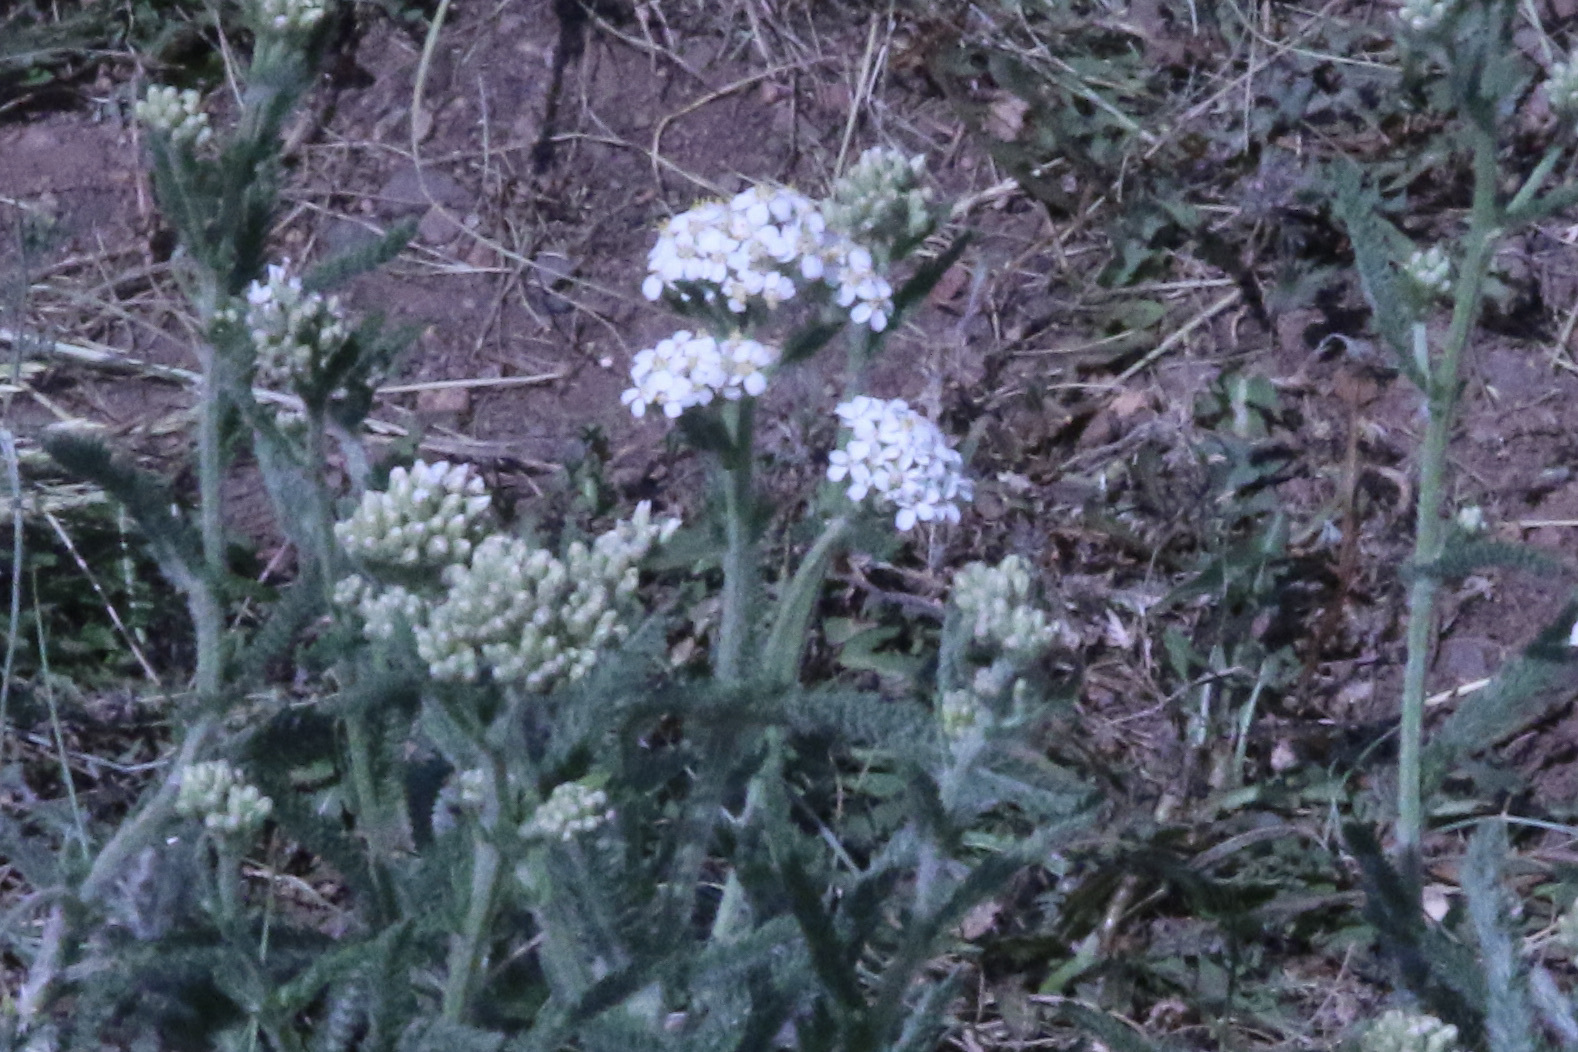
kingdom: Plantae
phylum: Tracheophyta
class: Magnoliopsida
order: Asterales
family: Asteraceae
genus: Achillea
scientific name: Achillea millefolium
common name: Yarrow
